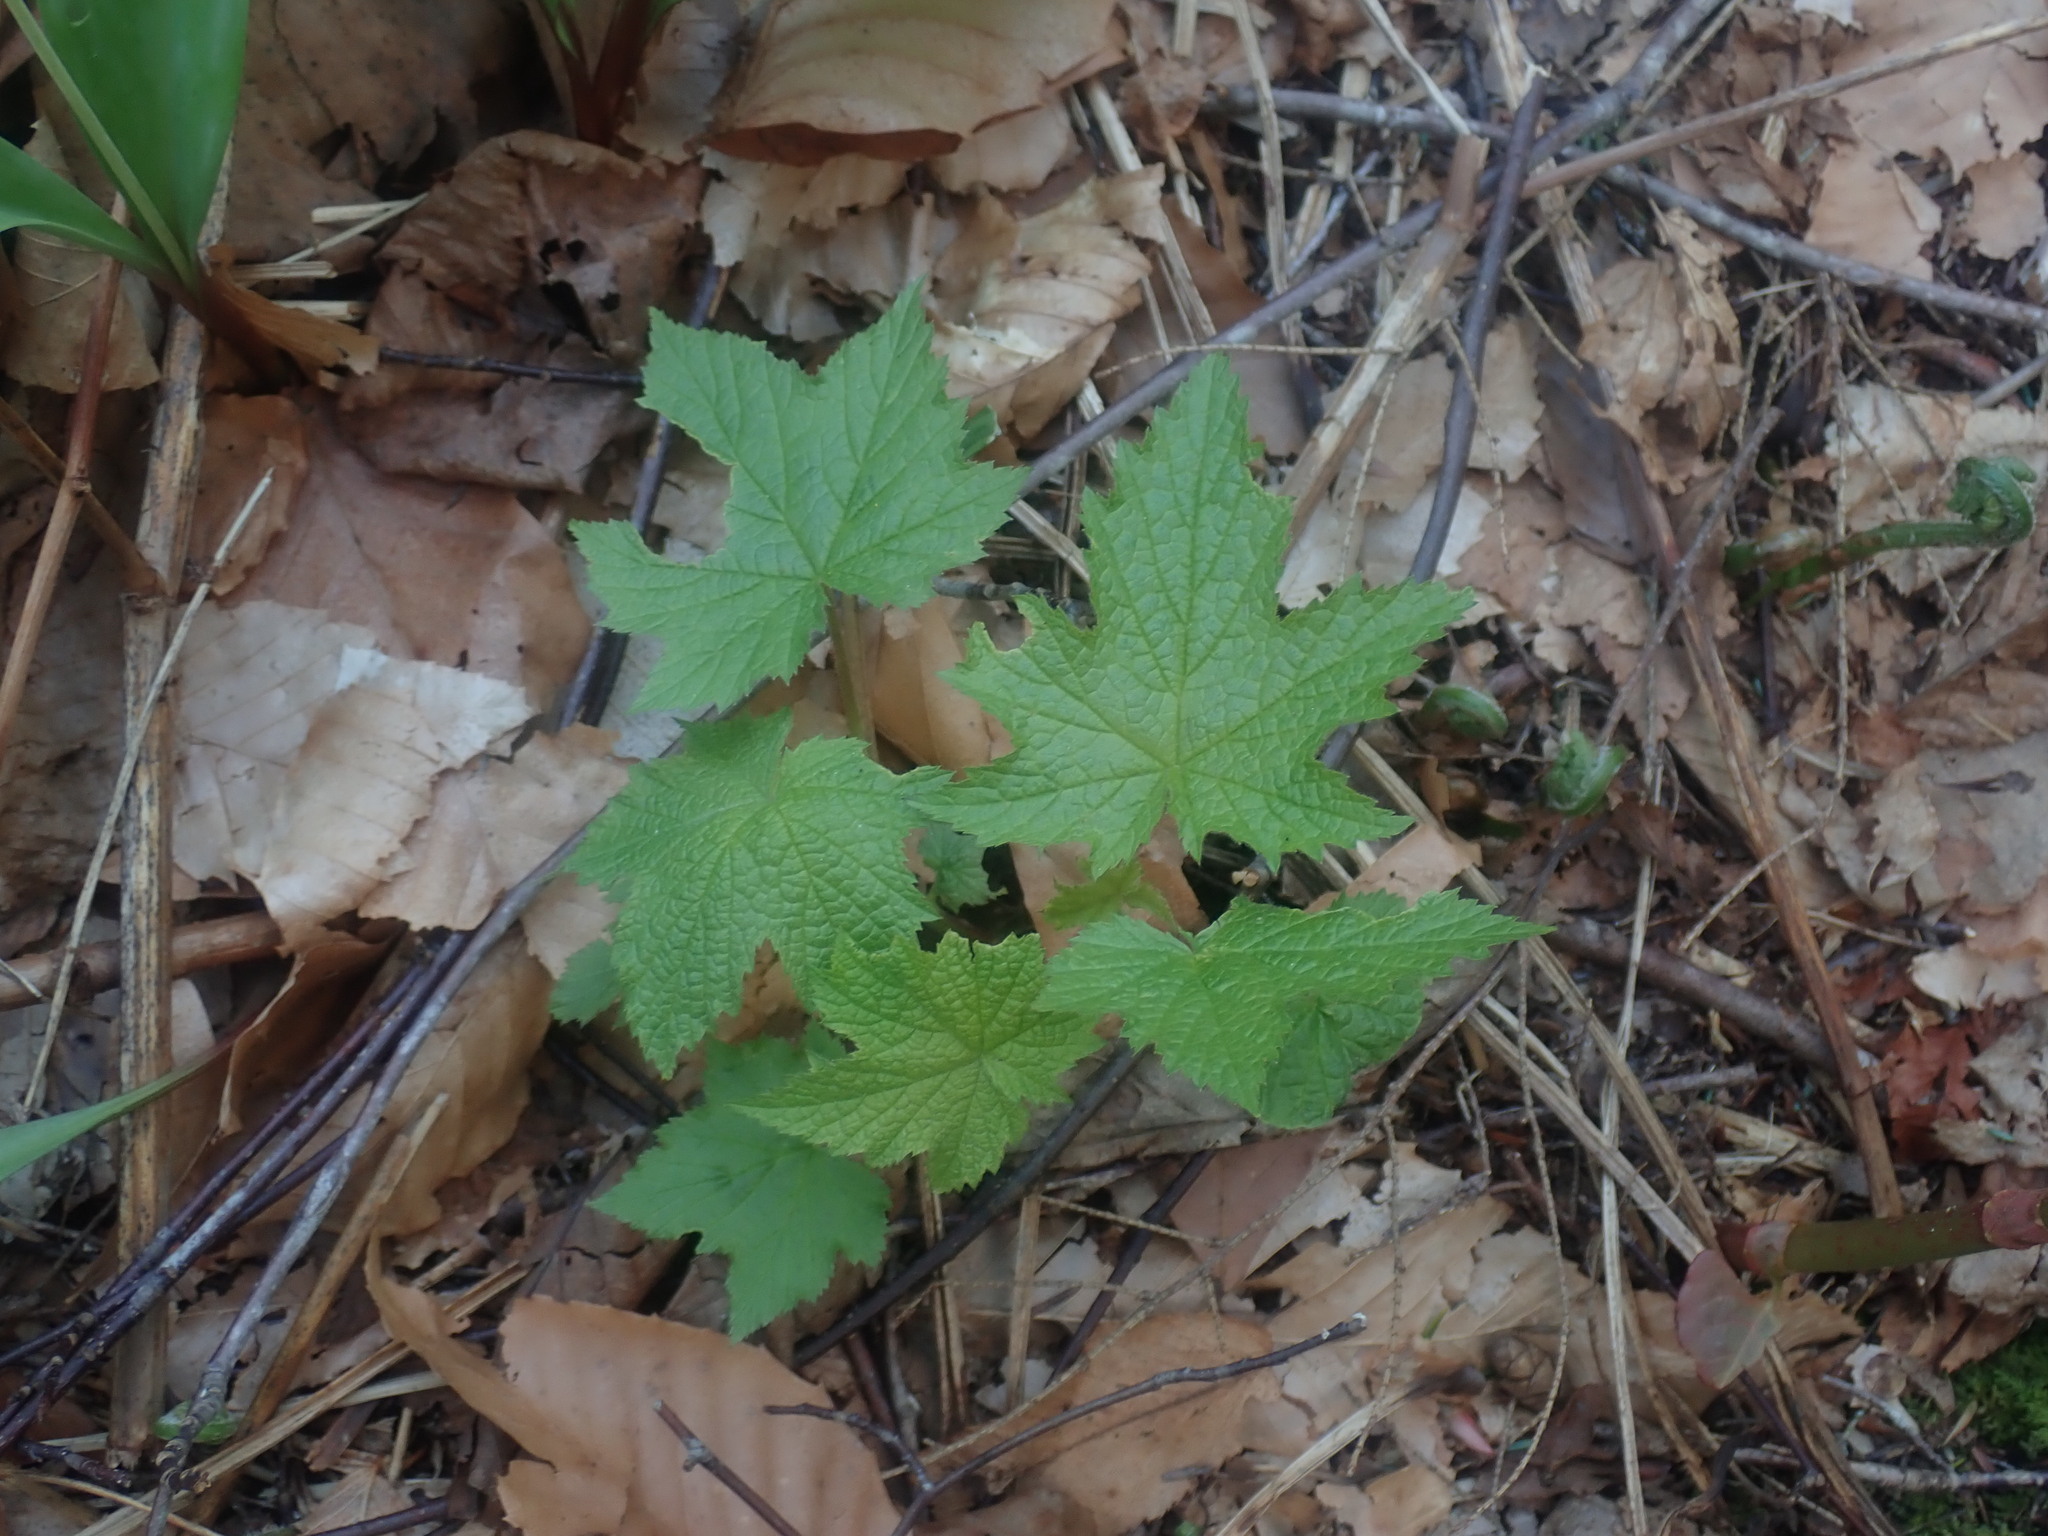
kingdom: Plantae
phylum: Tracheophyta
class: Magnoliopsida
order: Rosales
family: Rosaceae
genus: Rubus
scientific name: Rubus odoratus
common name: Purple-flowered raspberry
